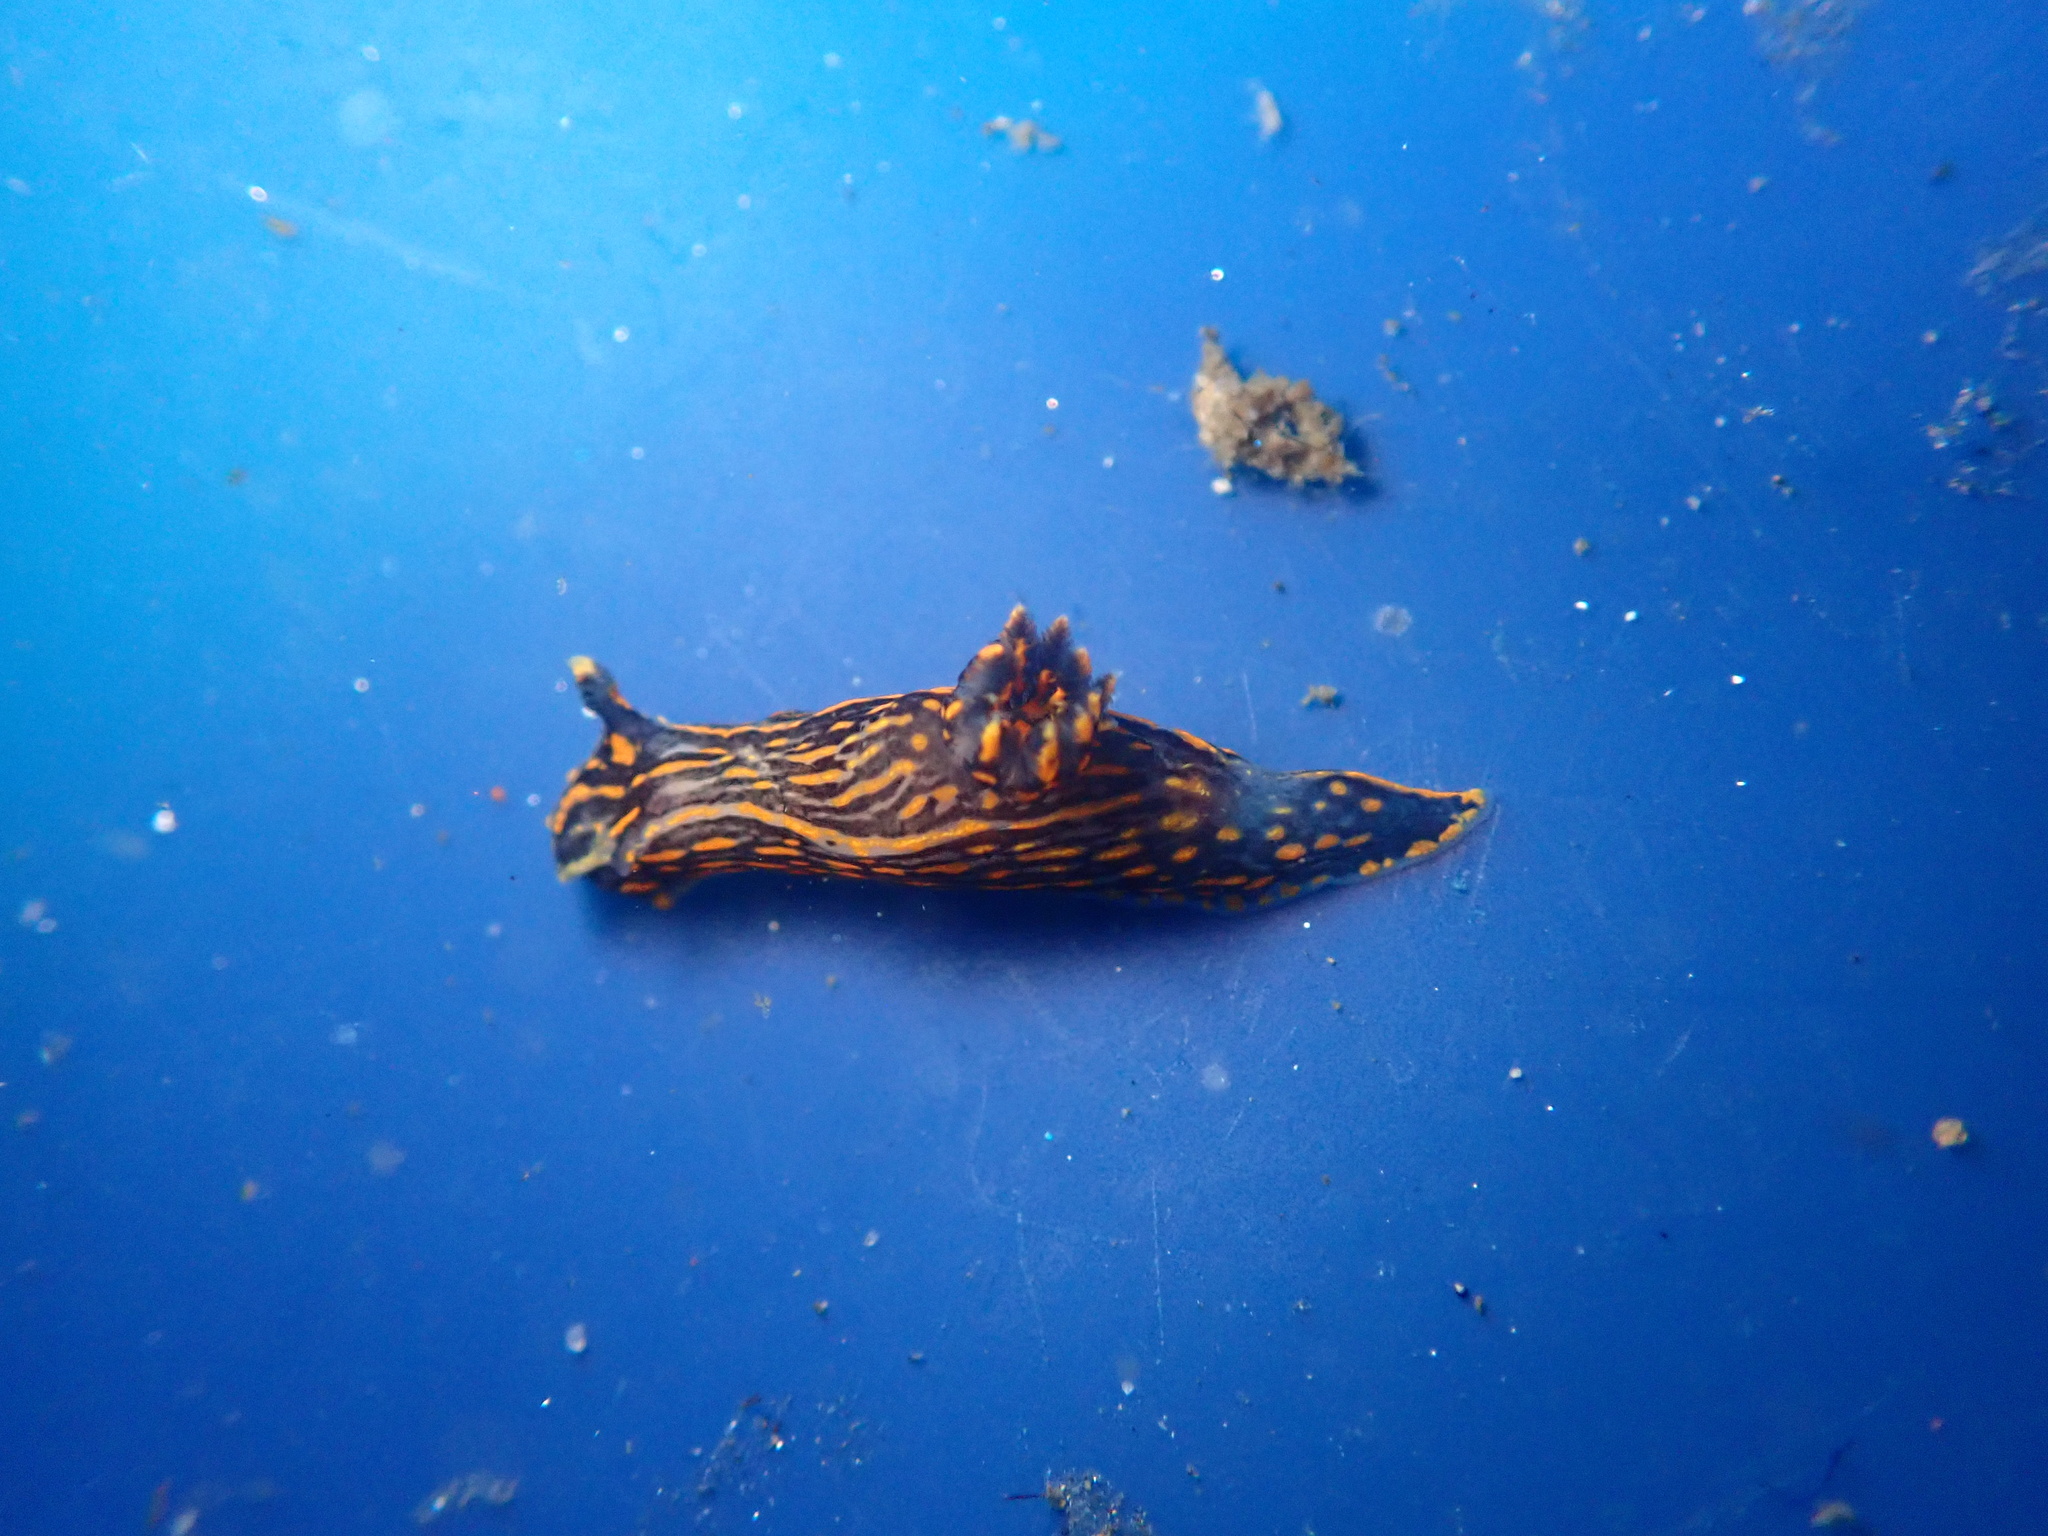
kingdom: Animalia
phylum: Mollusca
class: Gastropoda
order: Nudibranchia
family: Polyceridae
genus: Polycera
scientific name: Polycera atra
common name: Orange-spike polycera
